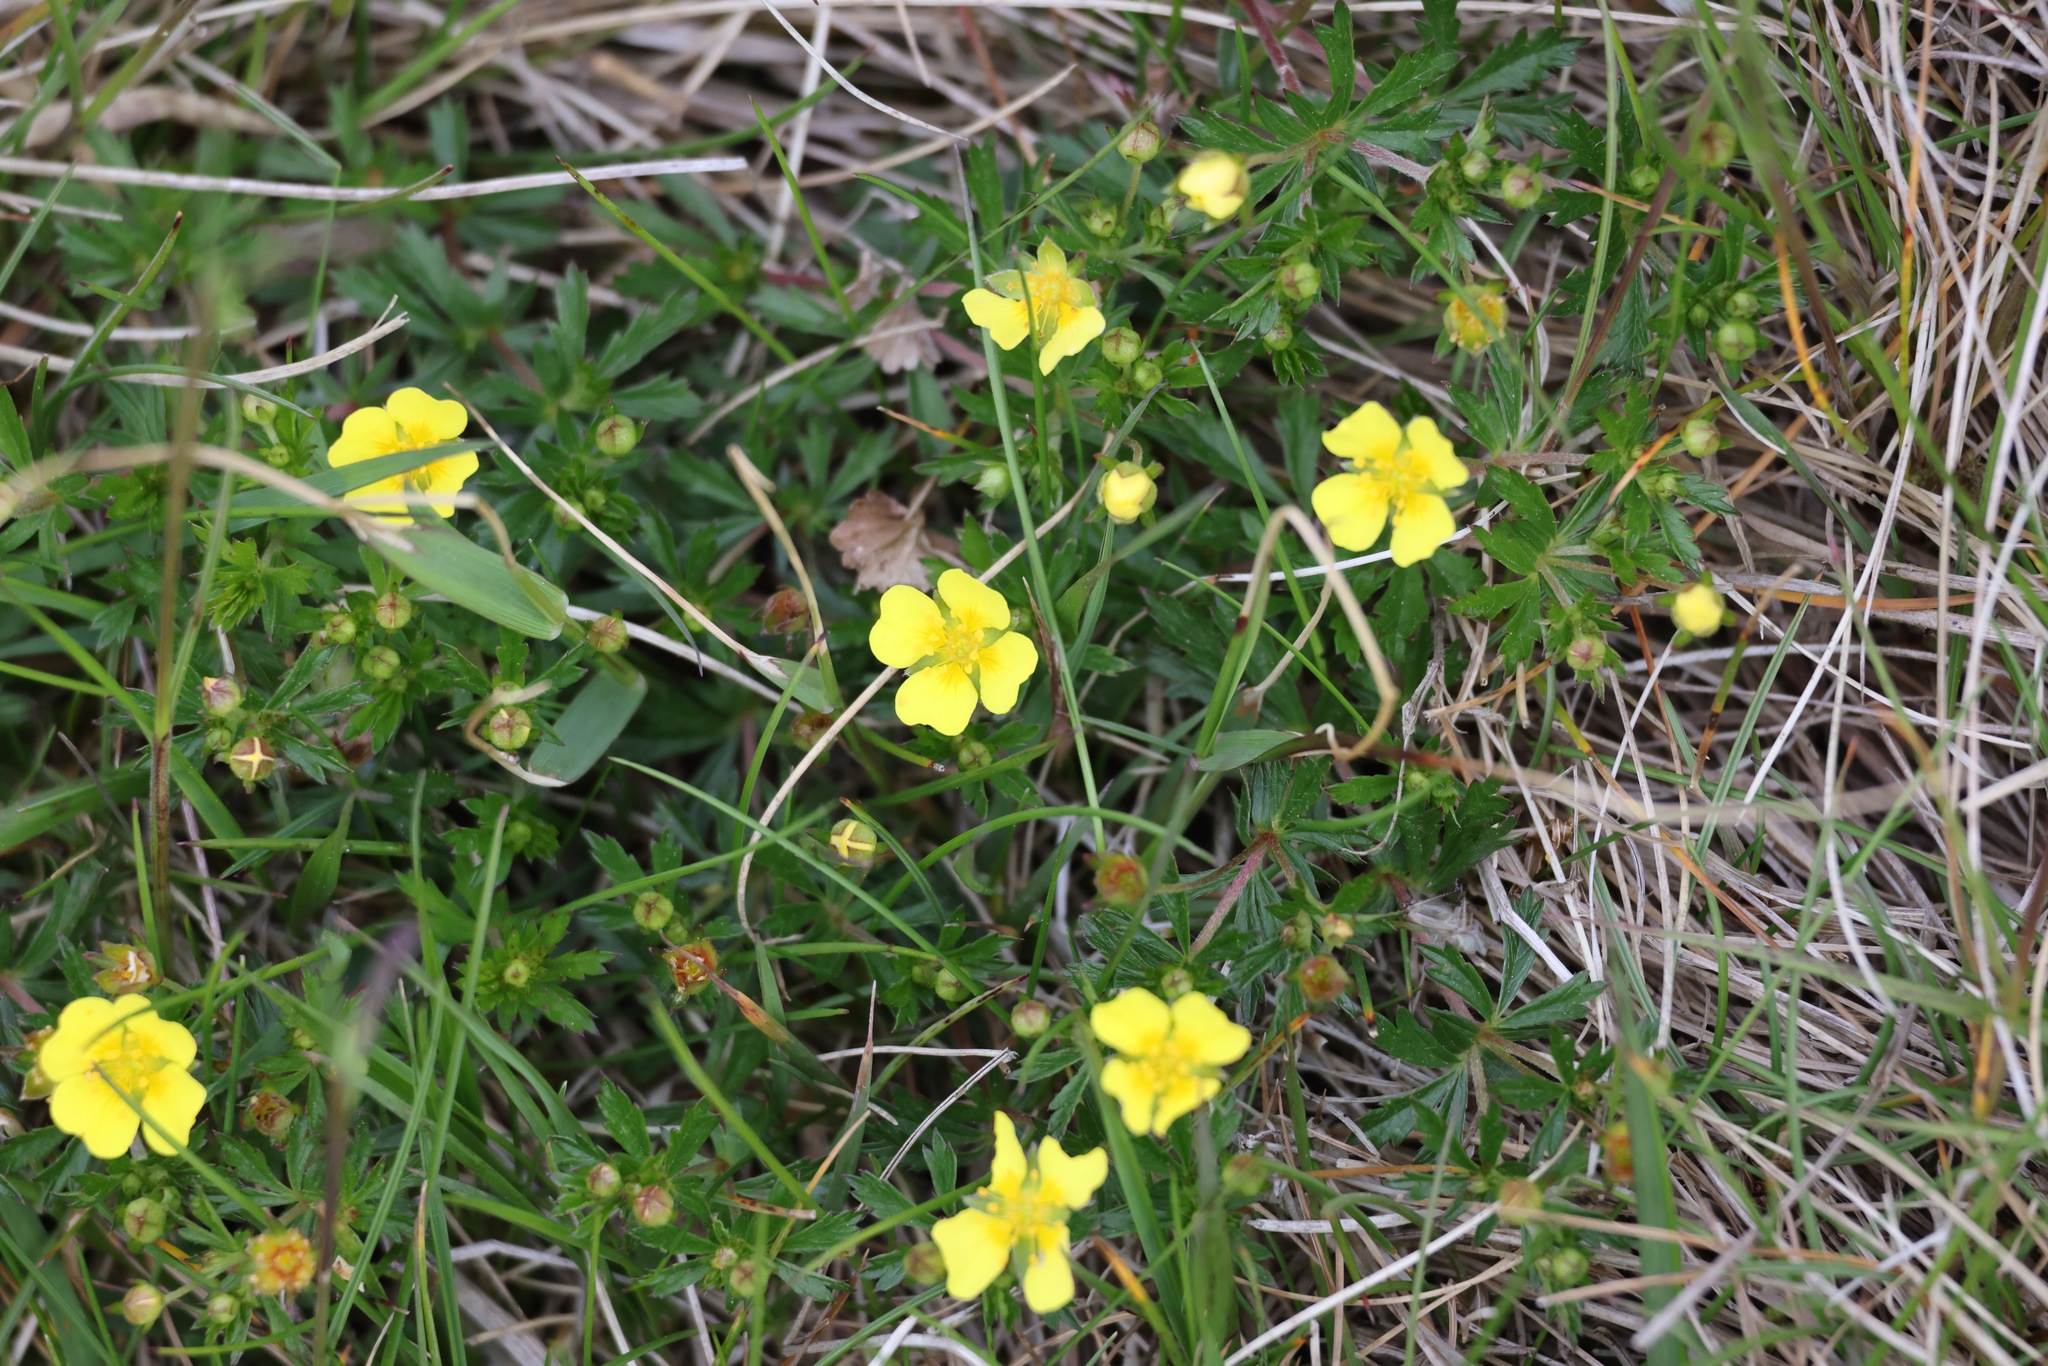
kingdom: Plantae
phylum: Tracheophyta
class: Magnoliopsida
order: Rosales
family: Rosaceae
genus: Potentilla
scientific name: Potentilla erecta
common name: Tormentil
